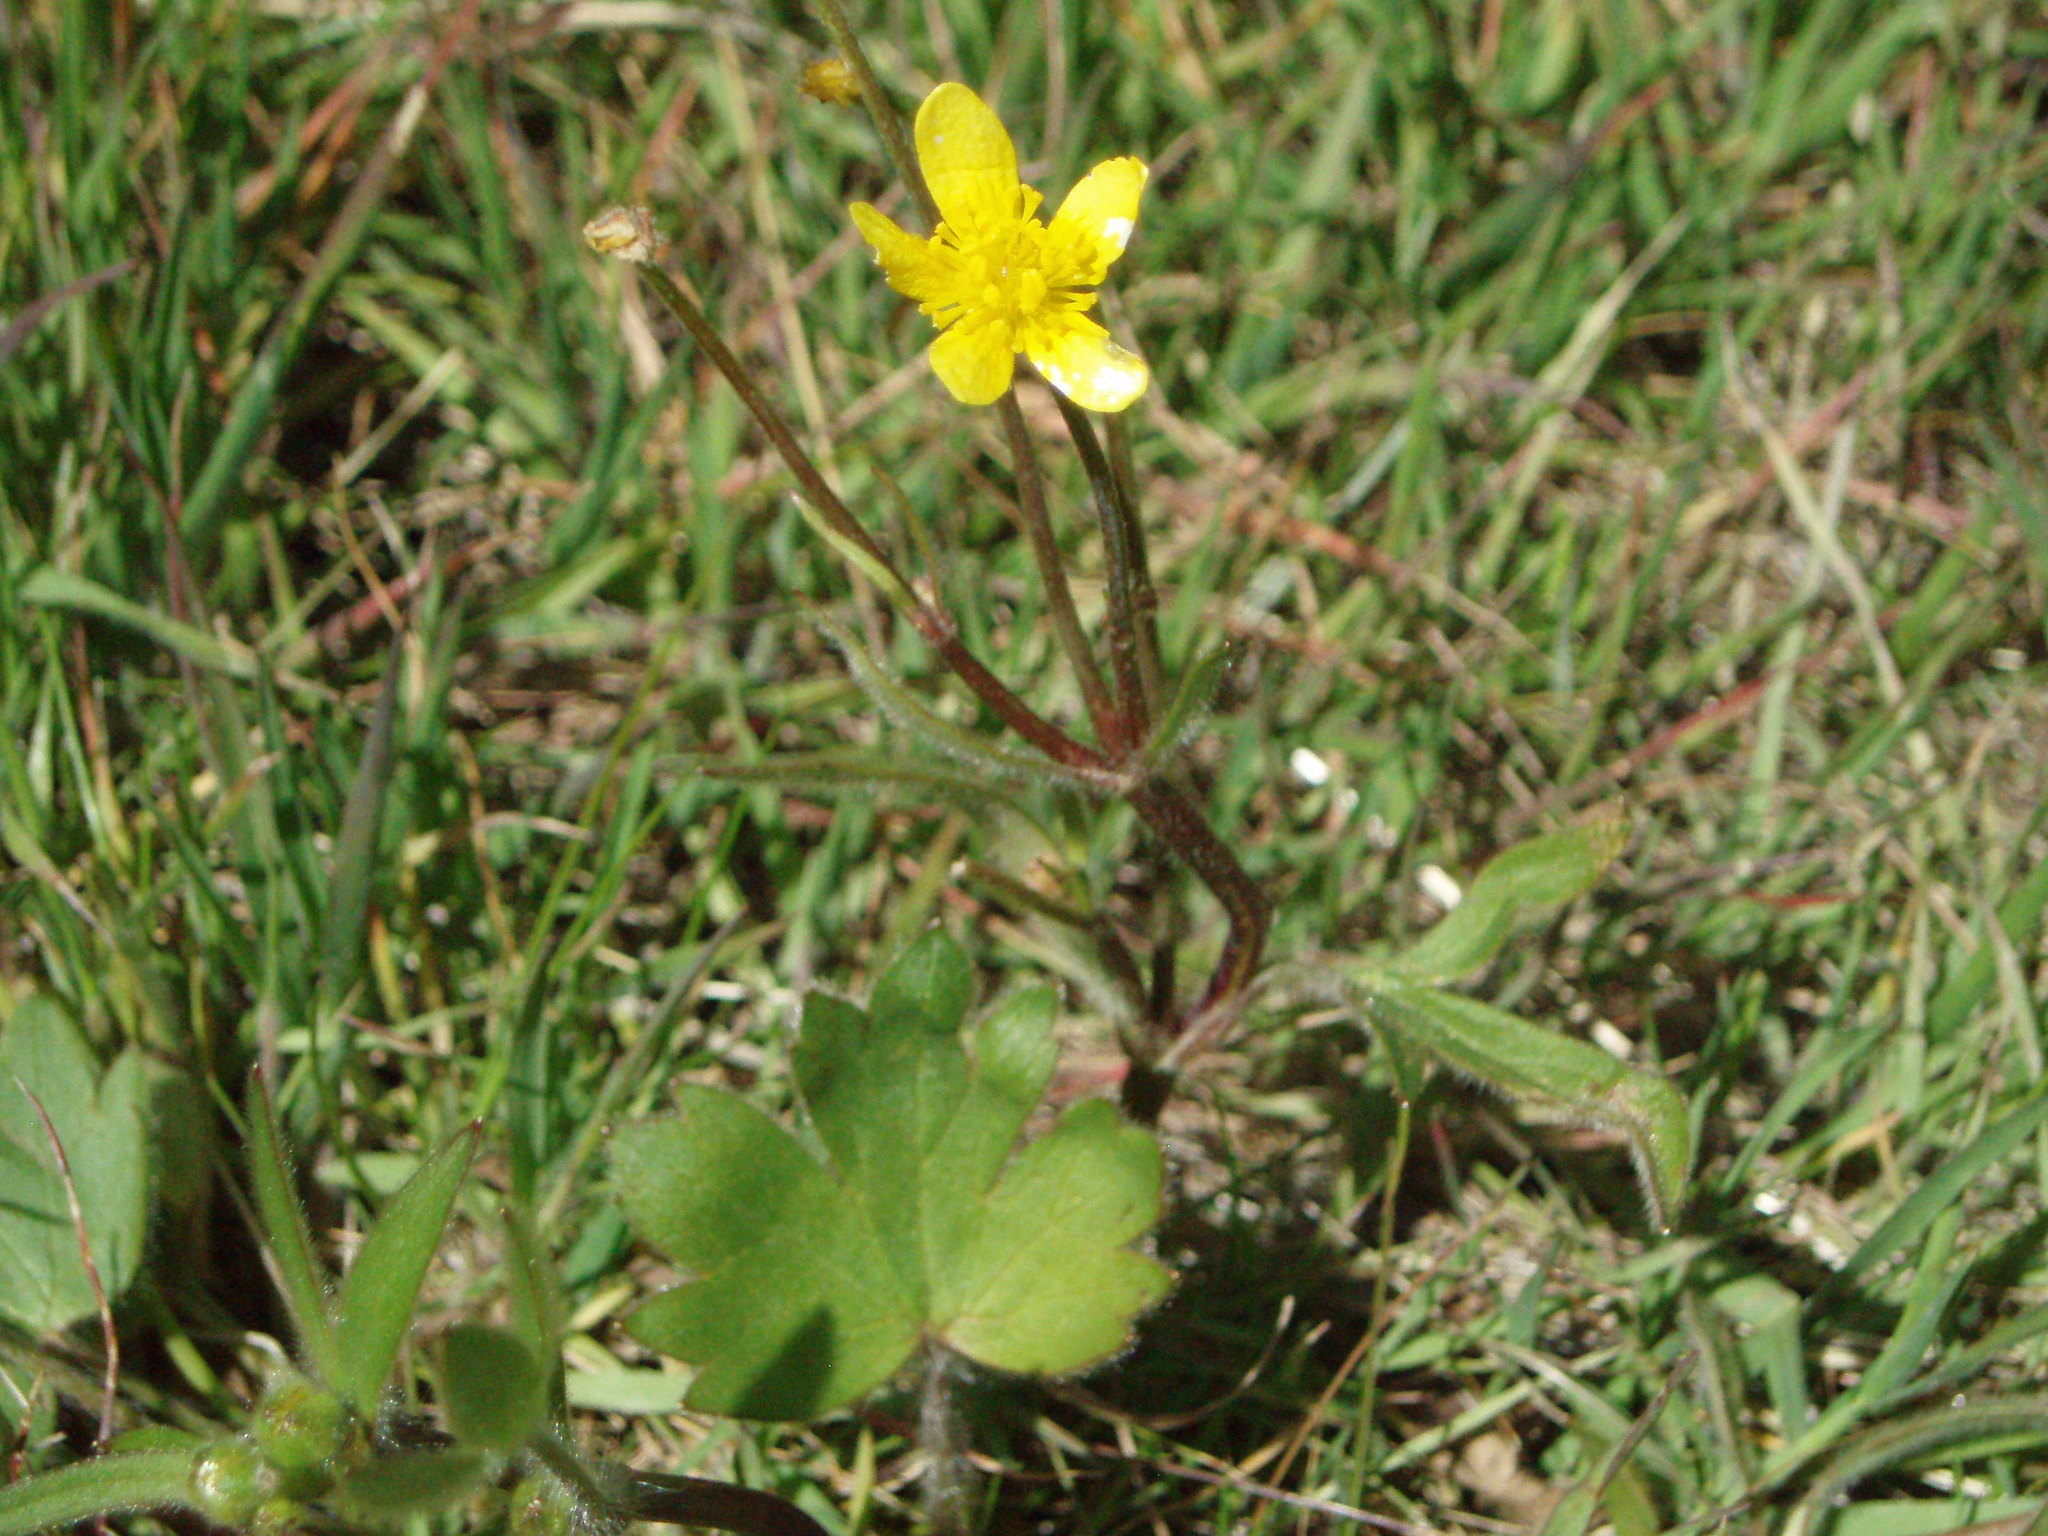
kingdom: Plantae
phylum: Tracheophyta
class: Magnoliopsida
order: Ranunculales
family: Ranunculaceae
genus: Ranunculus
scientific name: Ranunculus occidentalis
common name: Western buttercup
